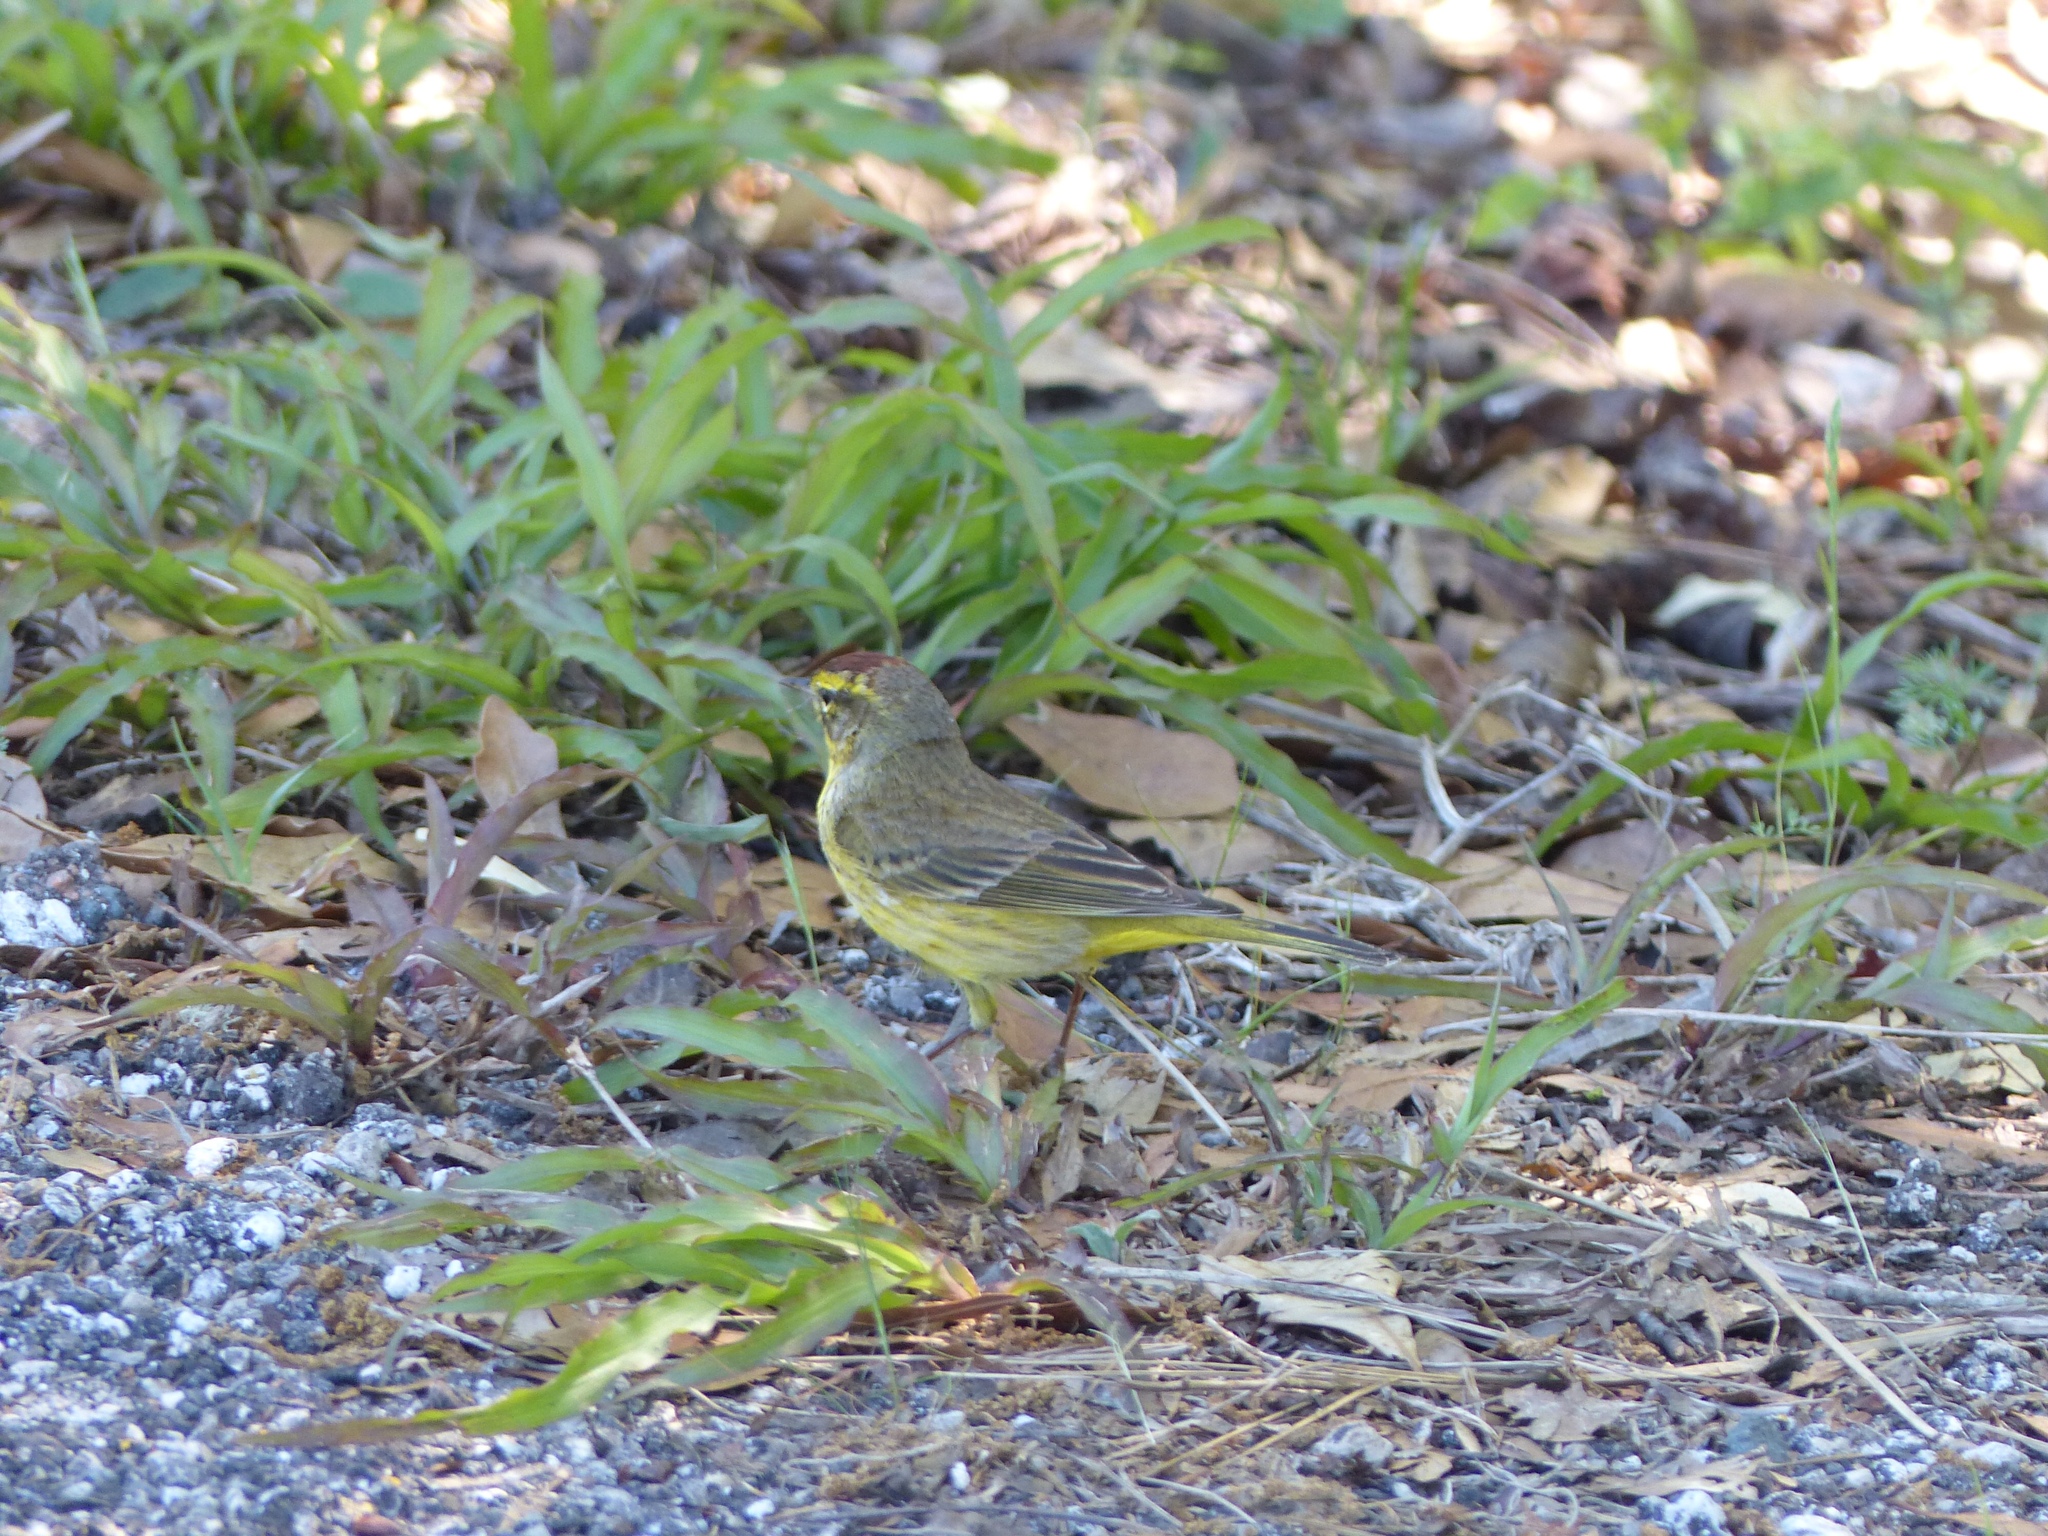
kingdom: Animalia
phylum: Chordata
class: Aves
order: Passeriformes
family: Parulidae
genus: Setophaga
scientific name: Setophaga palmarum
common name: Palm warbler
